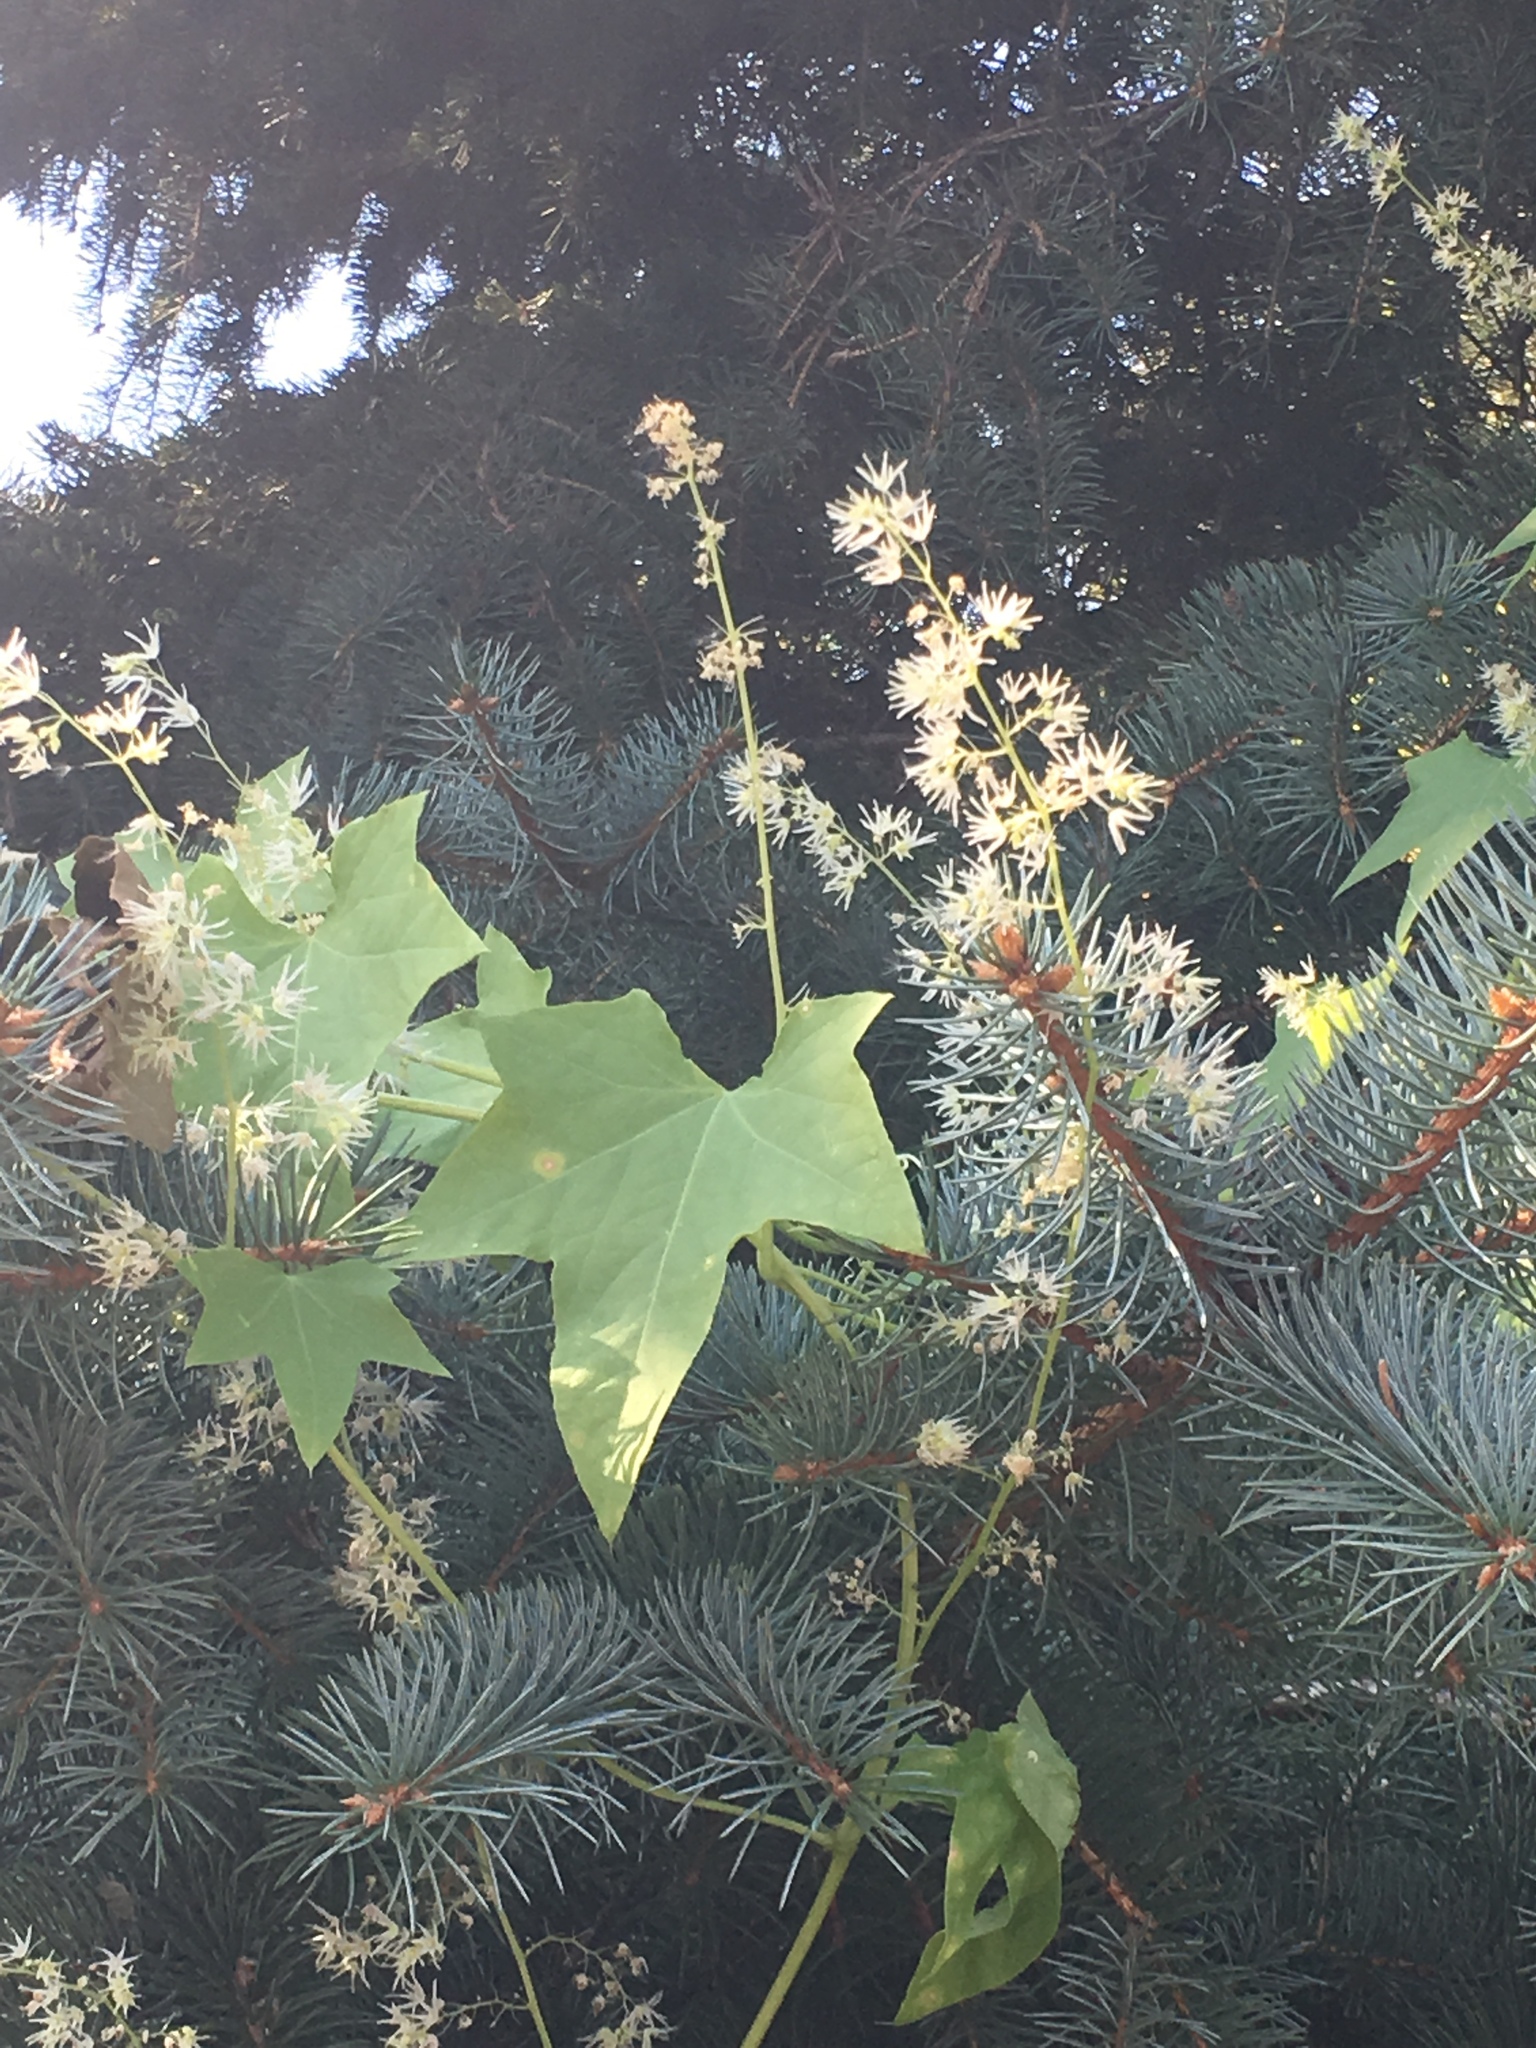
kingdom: Plantae
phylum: Tracheophyta
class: Magnoliopsida
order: Cucurbitales
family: Cucurbitaceae
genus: Echinocystis
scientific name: Echinocystis lobata
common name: Wild cucumber
